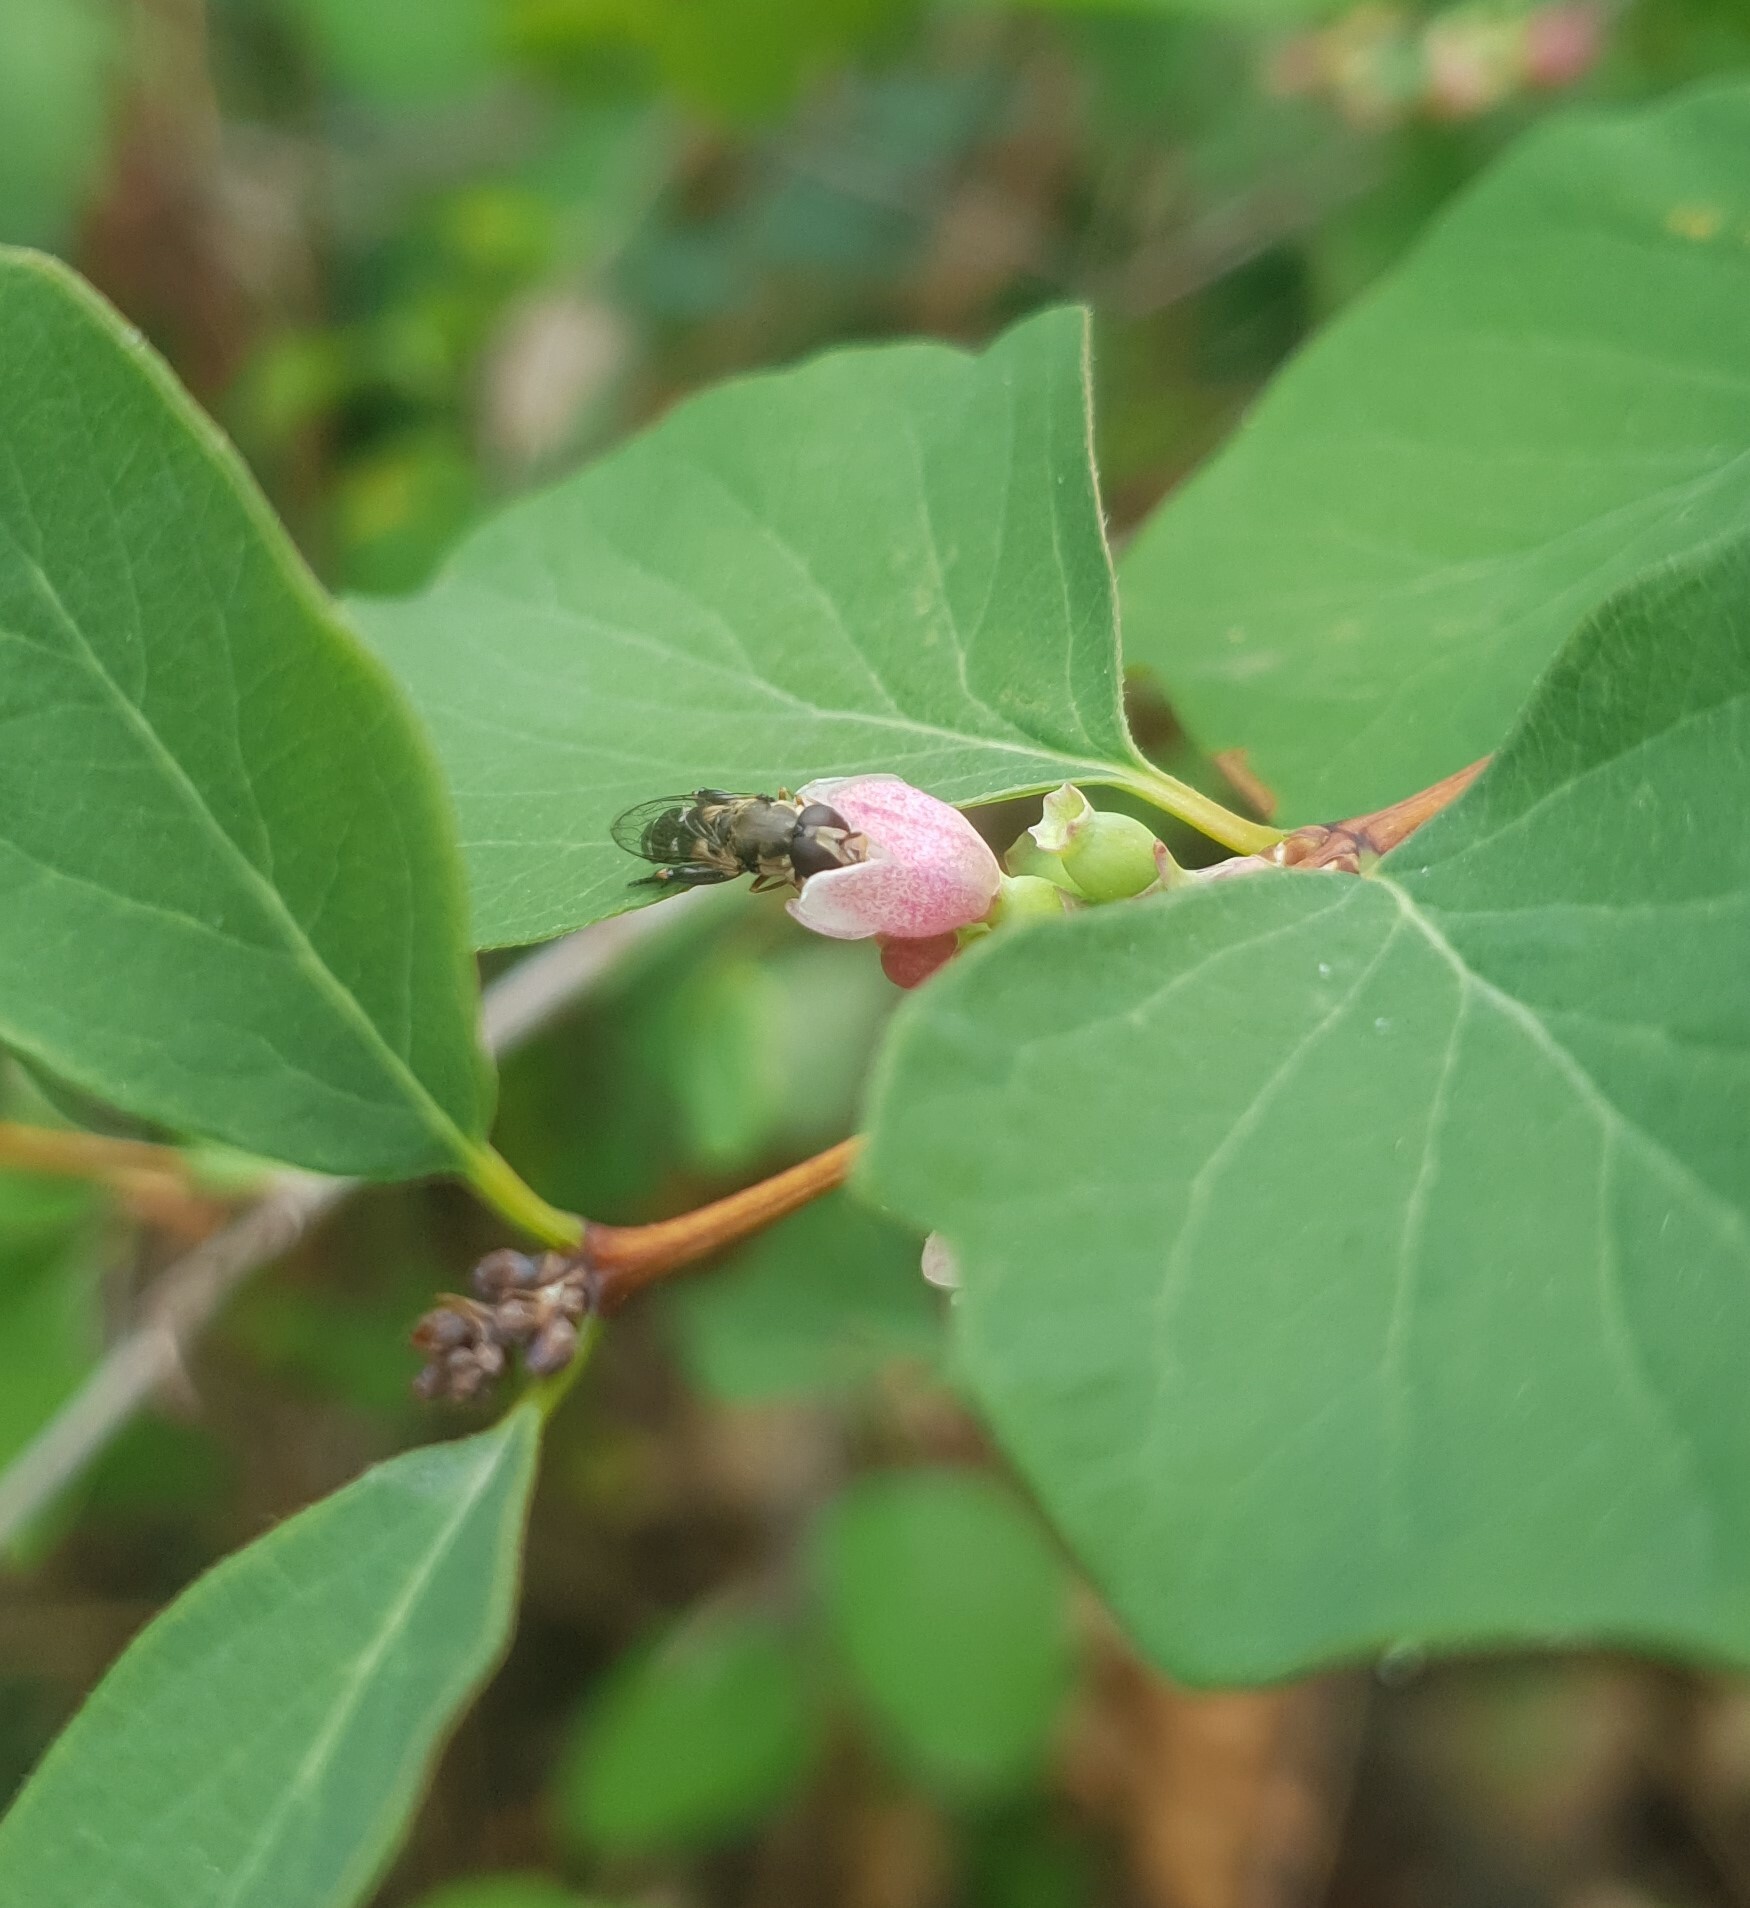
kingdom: Animalia
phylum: Arthropoda
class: Insecta
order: Diptera
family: Syrphidae
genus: Syritta
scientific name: Syritta pipiens
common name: Hover fly
